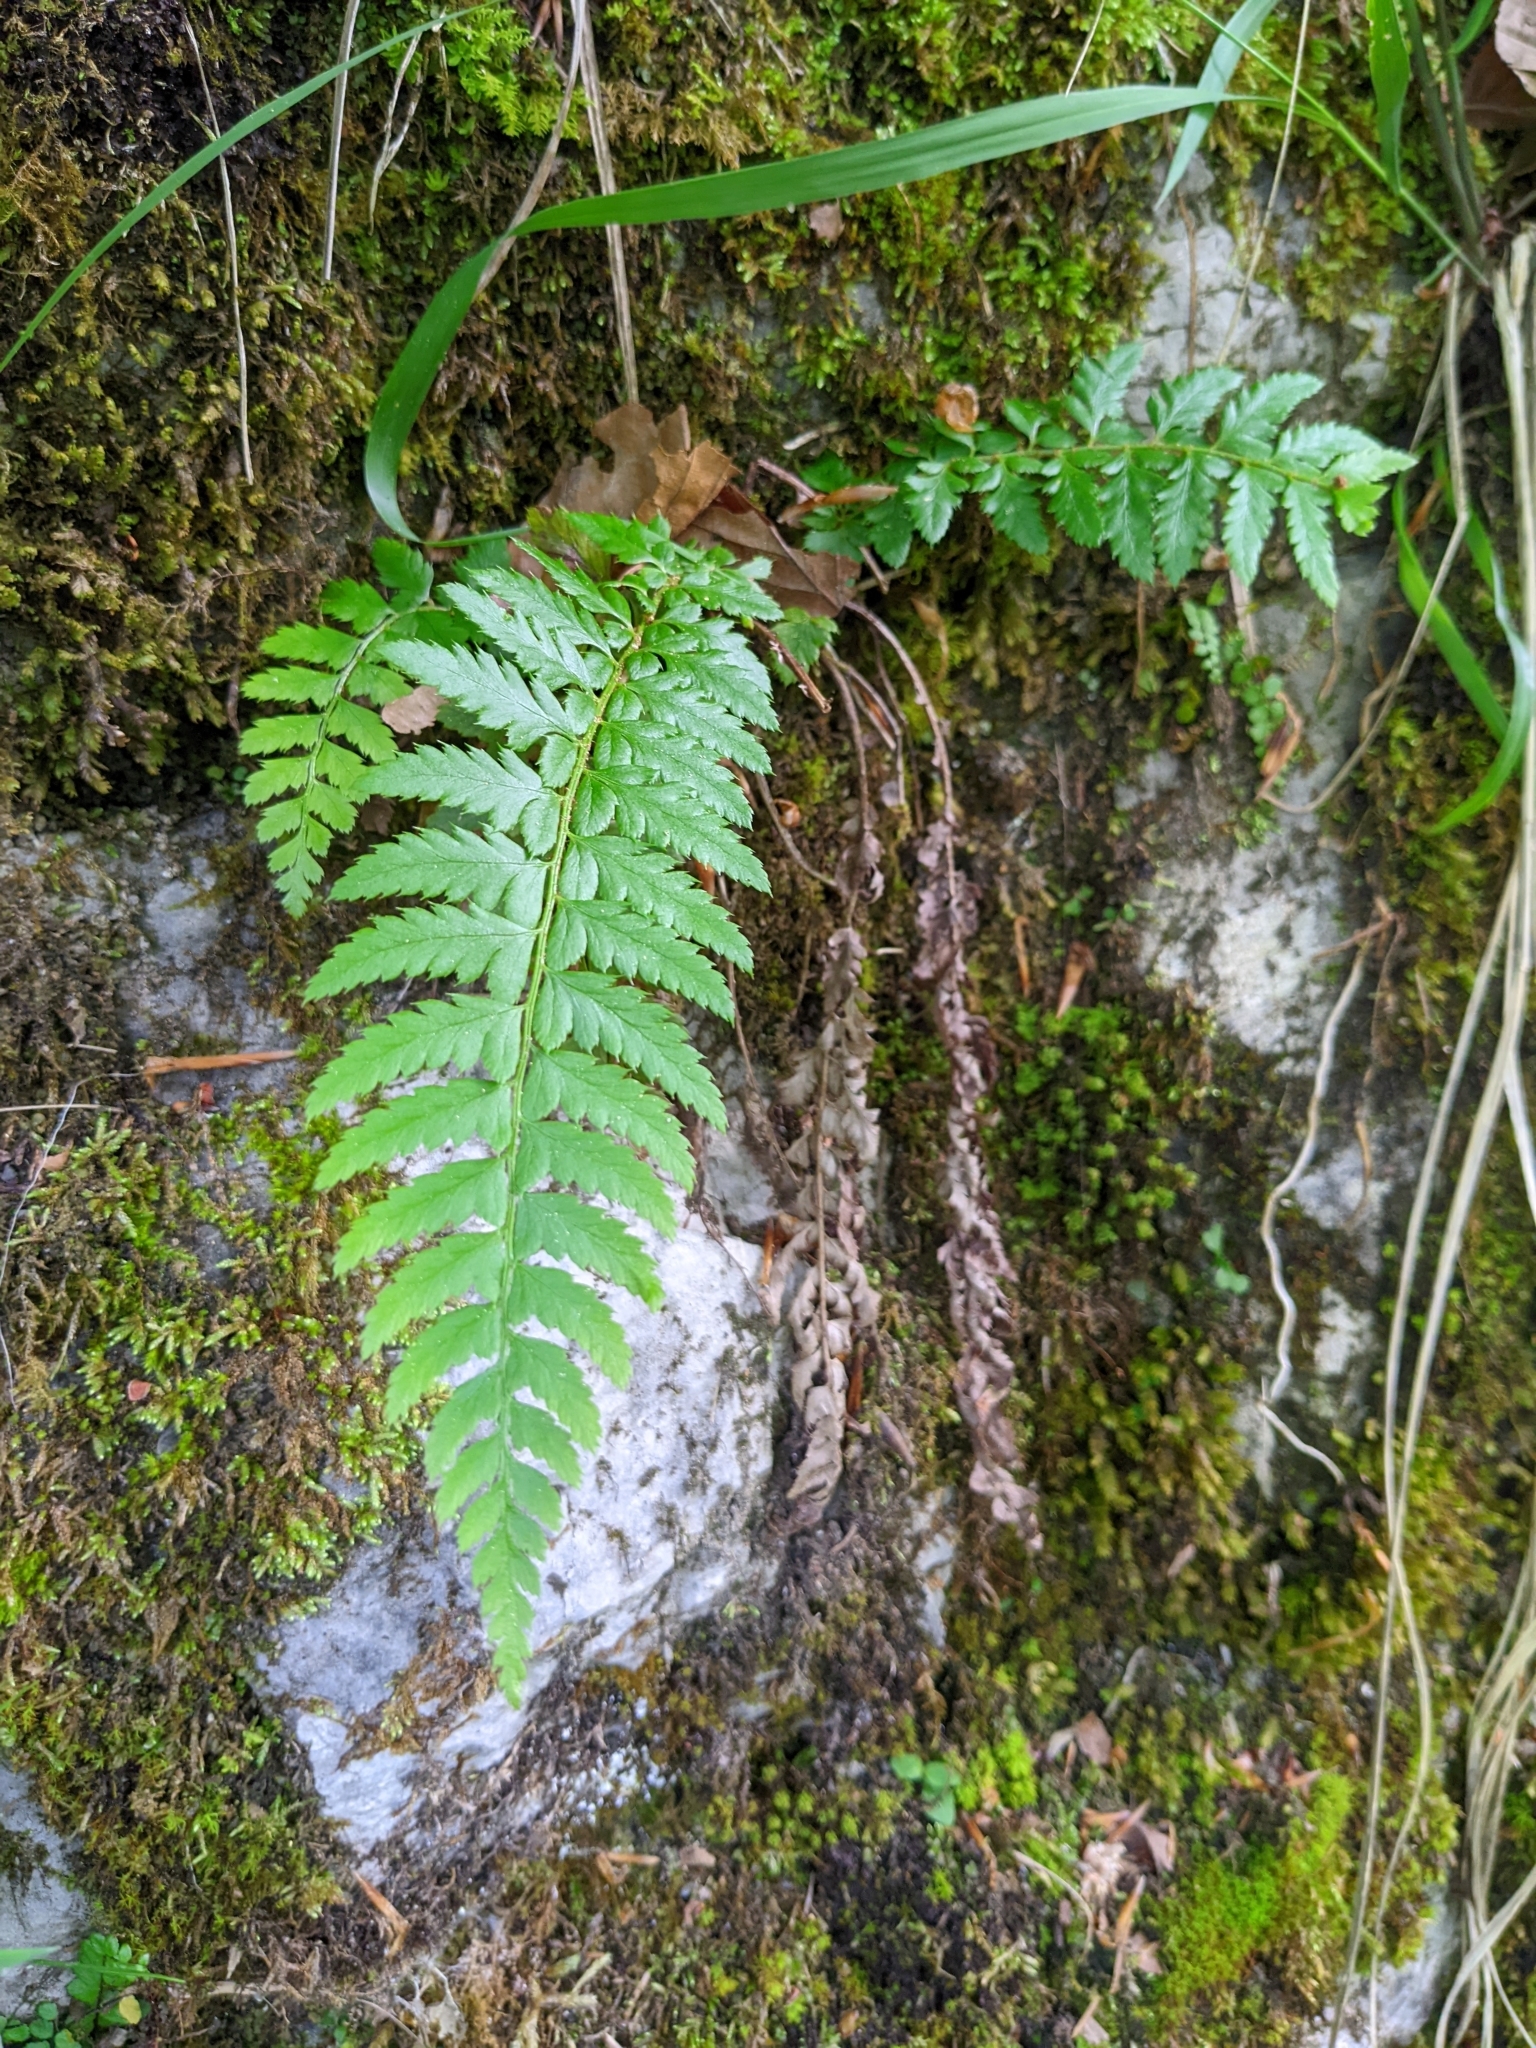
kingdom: Plantae
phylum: Tracheophyta
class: Polypodiopsida
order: Polypodiales
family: Dryopteridaceae
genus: Polystichum
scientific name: Polystichum aculeatum
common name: Hard shield-fern
